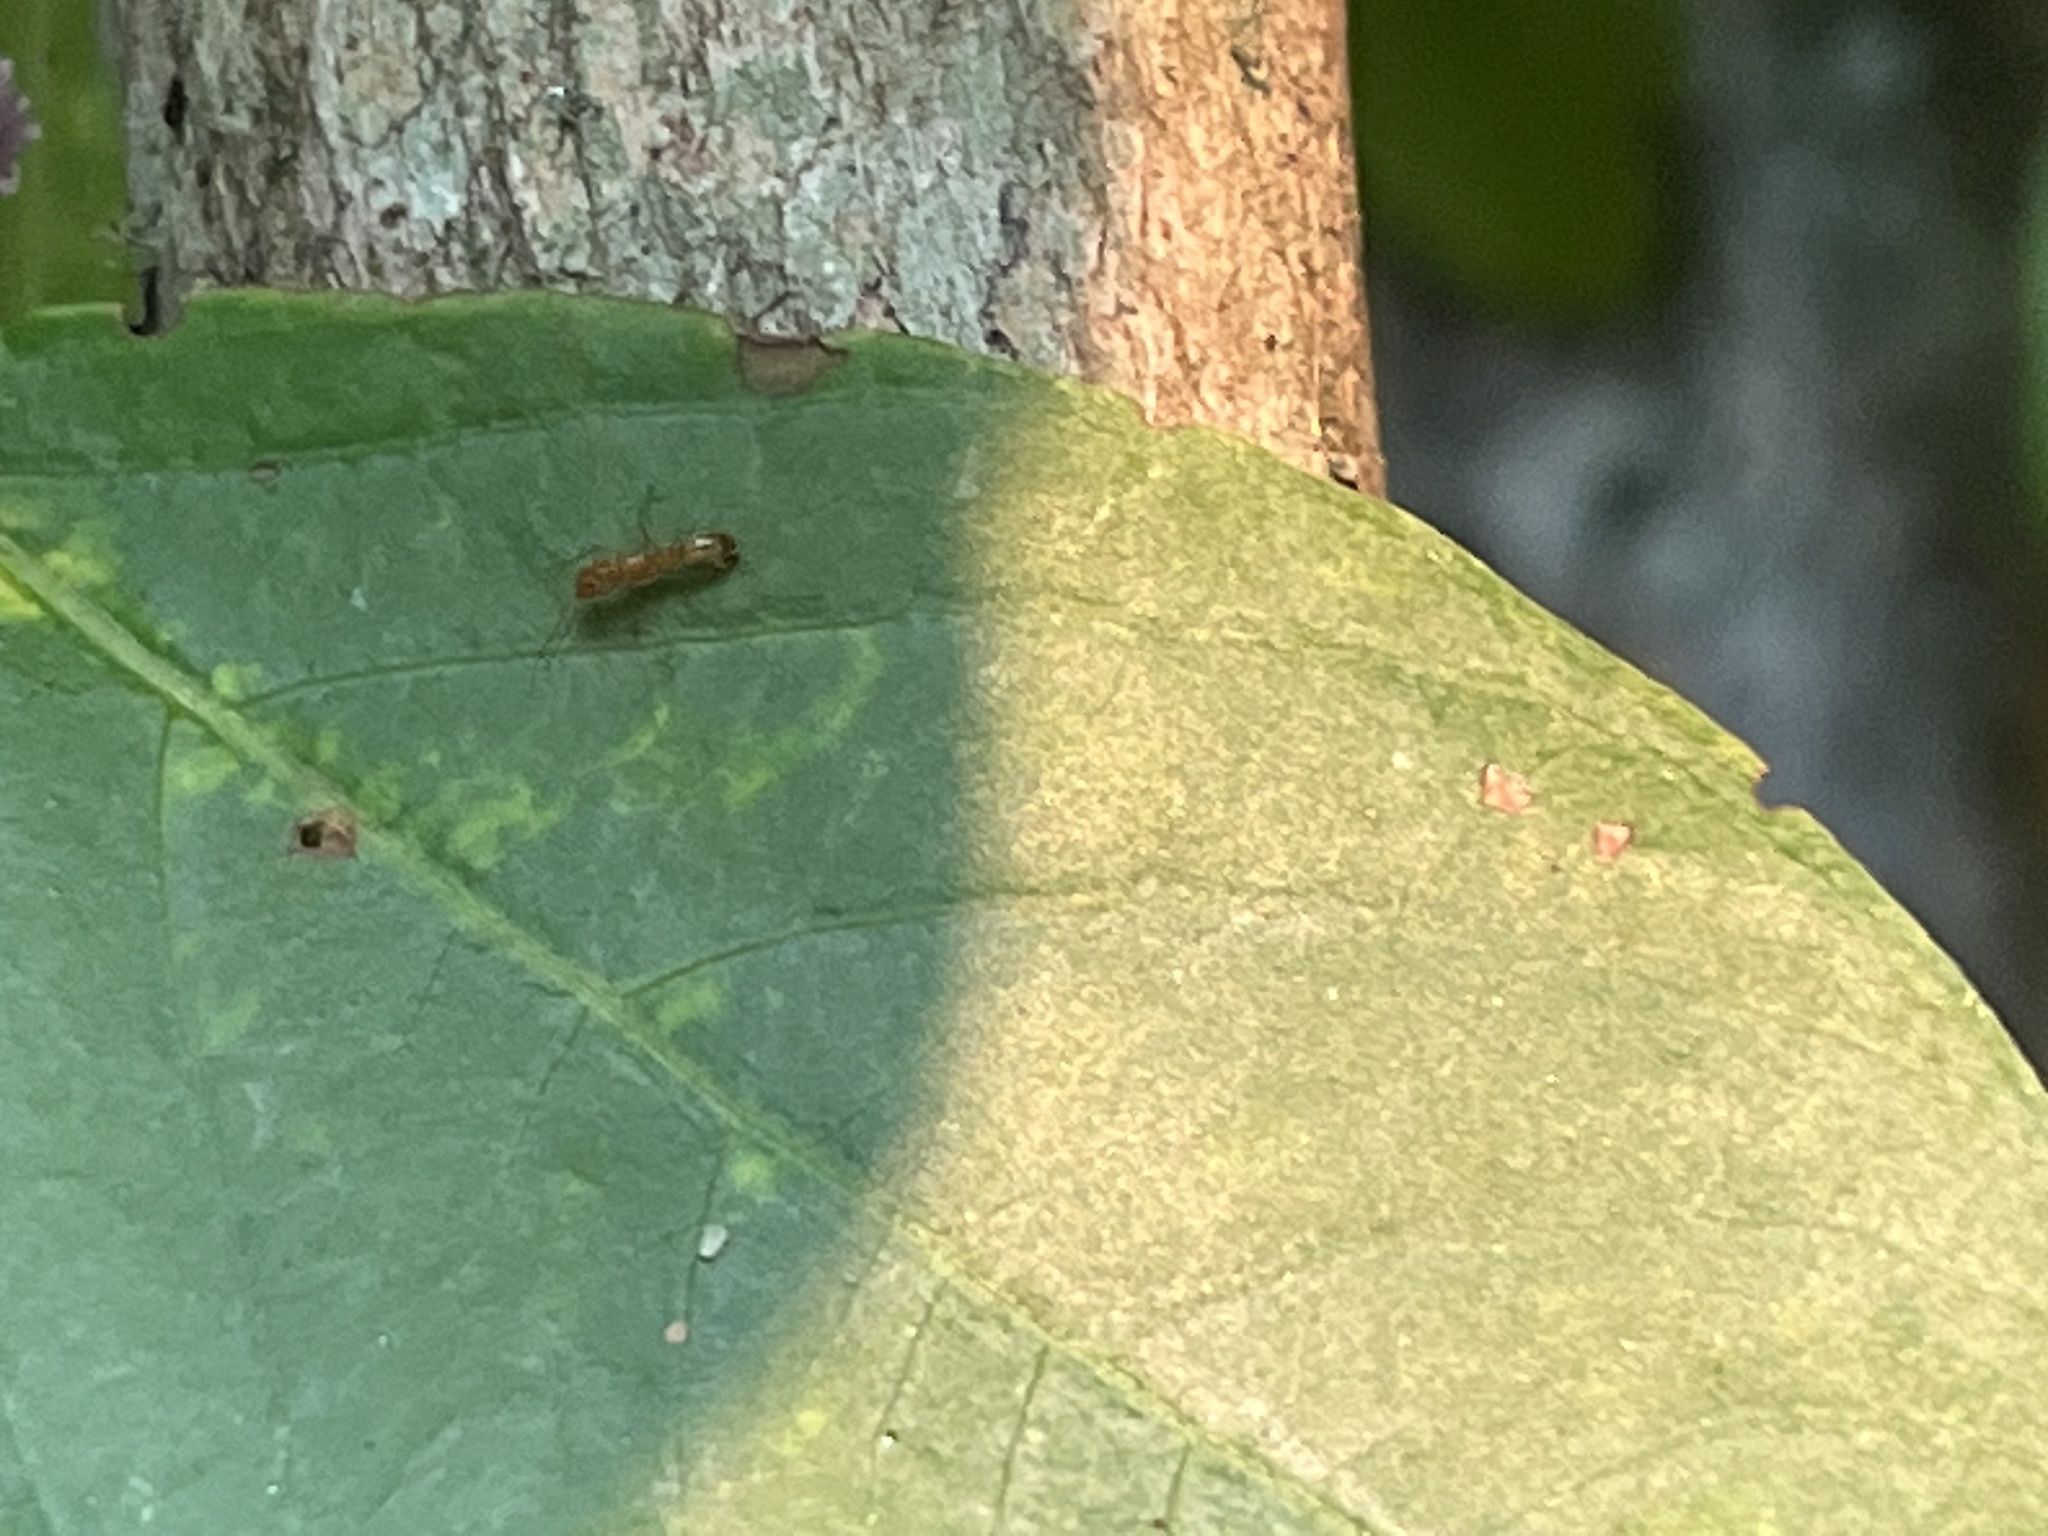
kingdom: Animalia
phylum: Arthropoda
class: Insecta
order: Hymenoptera
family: Formicidae
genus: Dorymyrmex
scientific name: Dorymyrmex bureni
